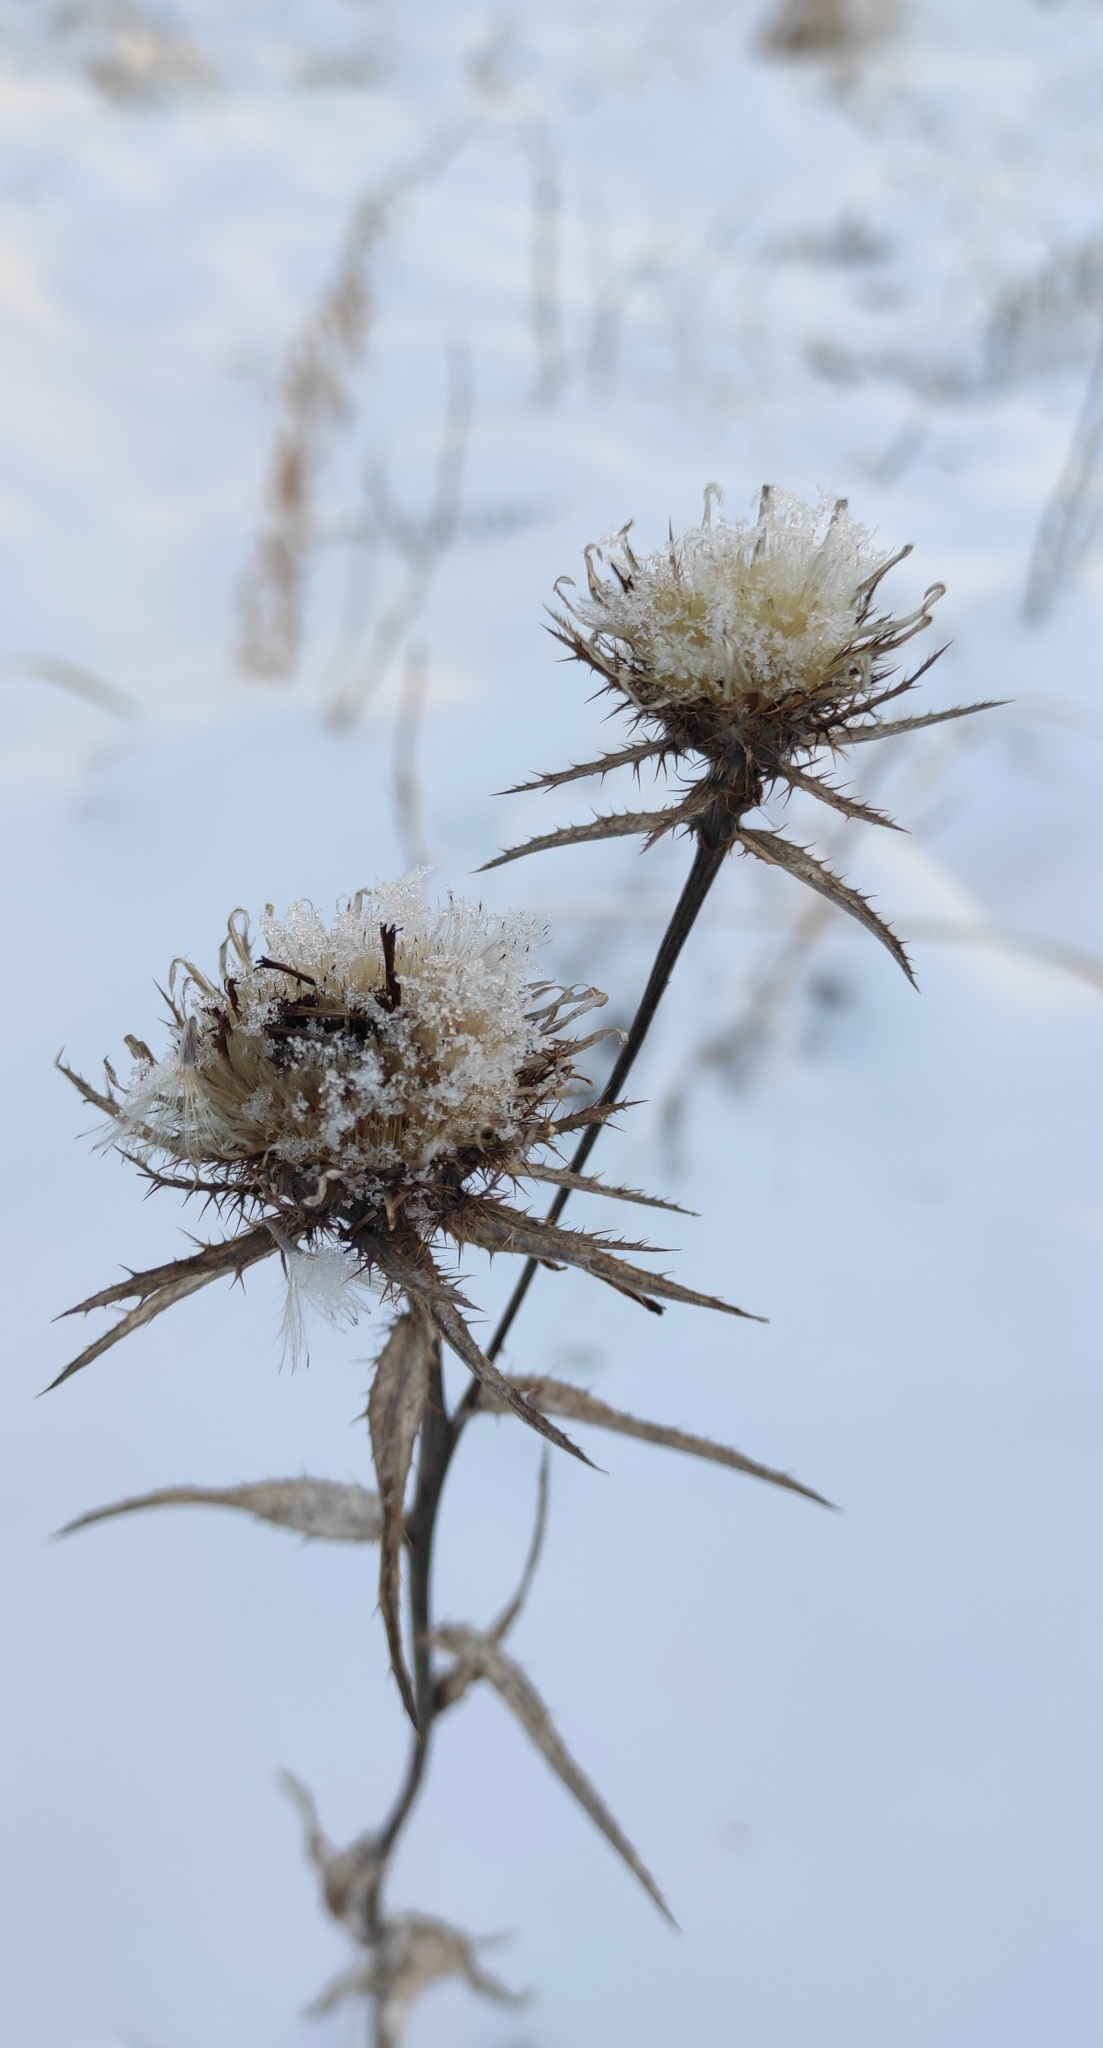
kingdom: Plantae
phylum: Tracheophyta
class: Magnoliopsida
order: Asterales
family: Asteraceae
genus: Carlina
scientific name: Carlina biebersteinii
